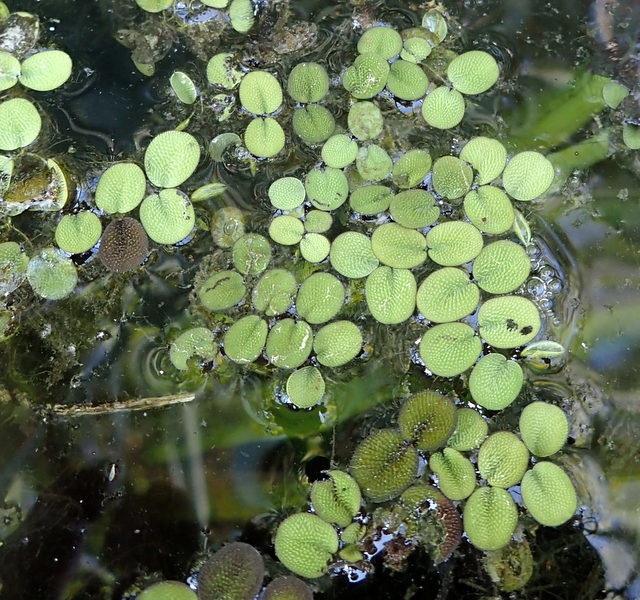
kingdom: Plantae
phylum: Tracheophyta
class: Polypodiopsida
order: Salviniales
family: Salviniaceae
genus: Salvinia
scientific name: Salvinia minima
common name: Water spangles
